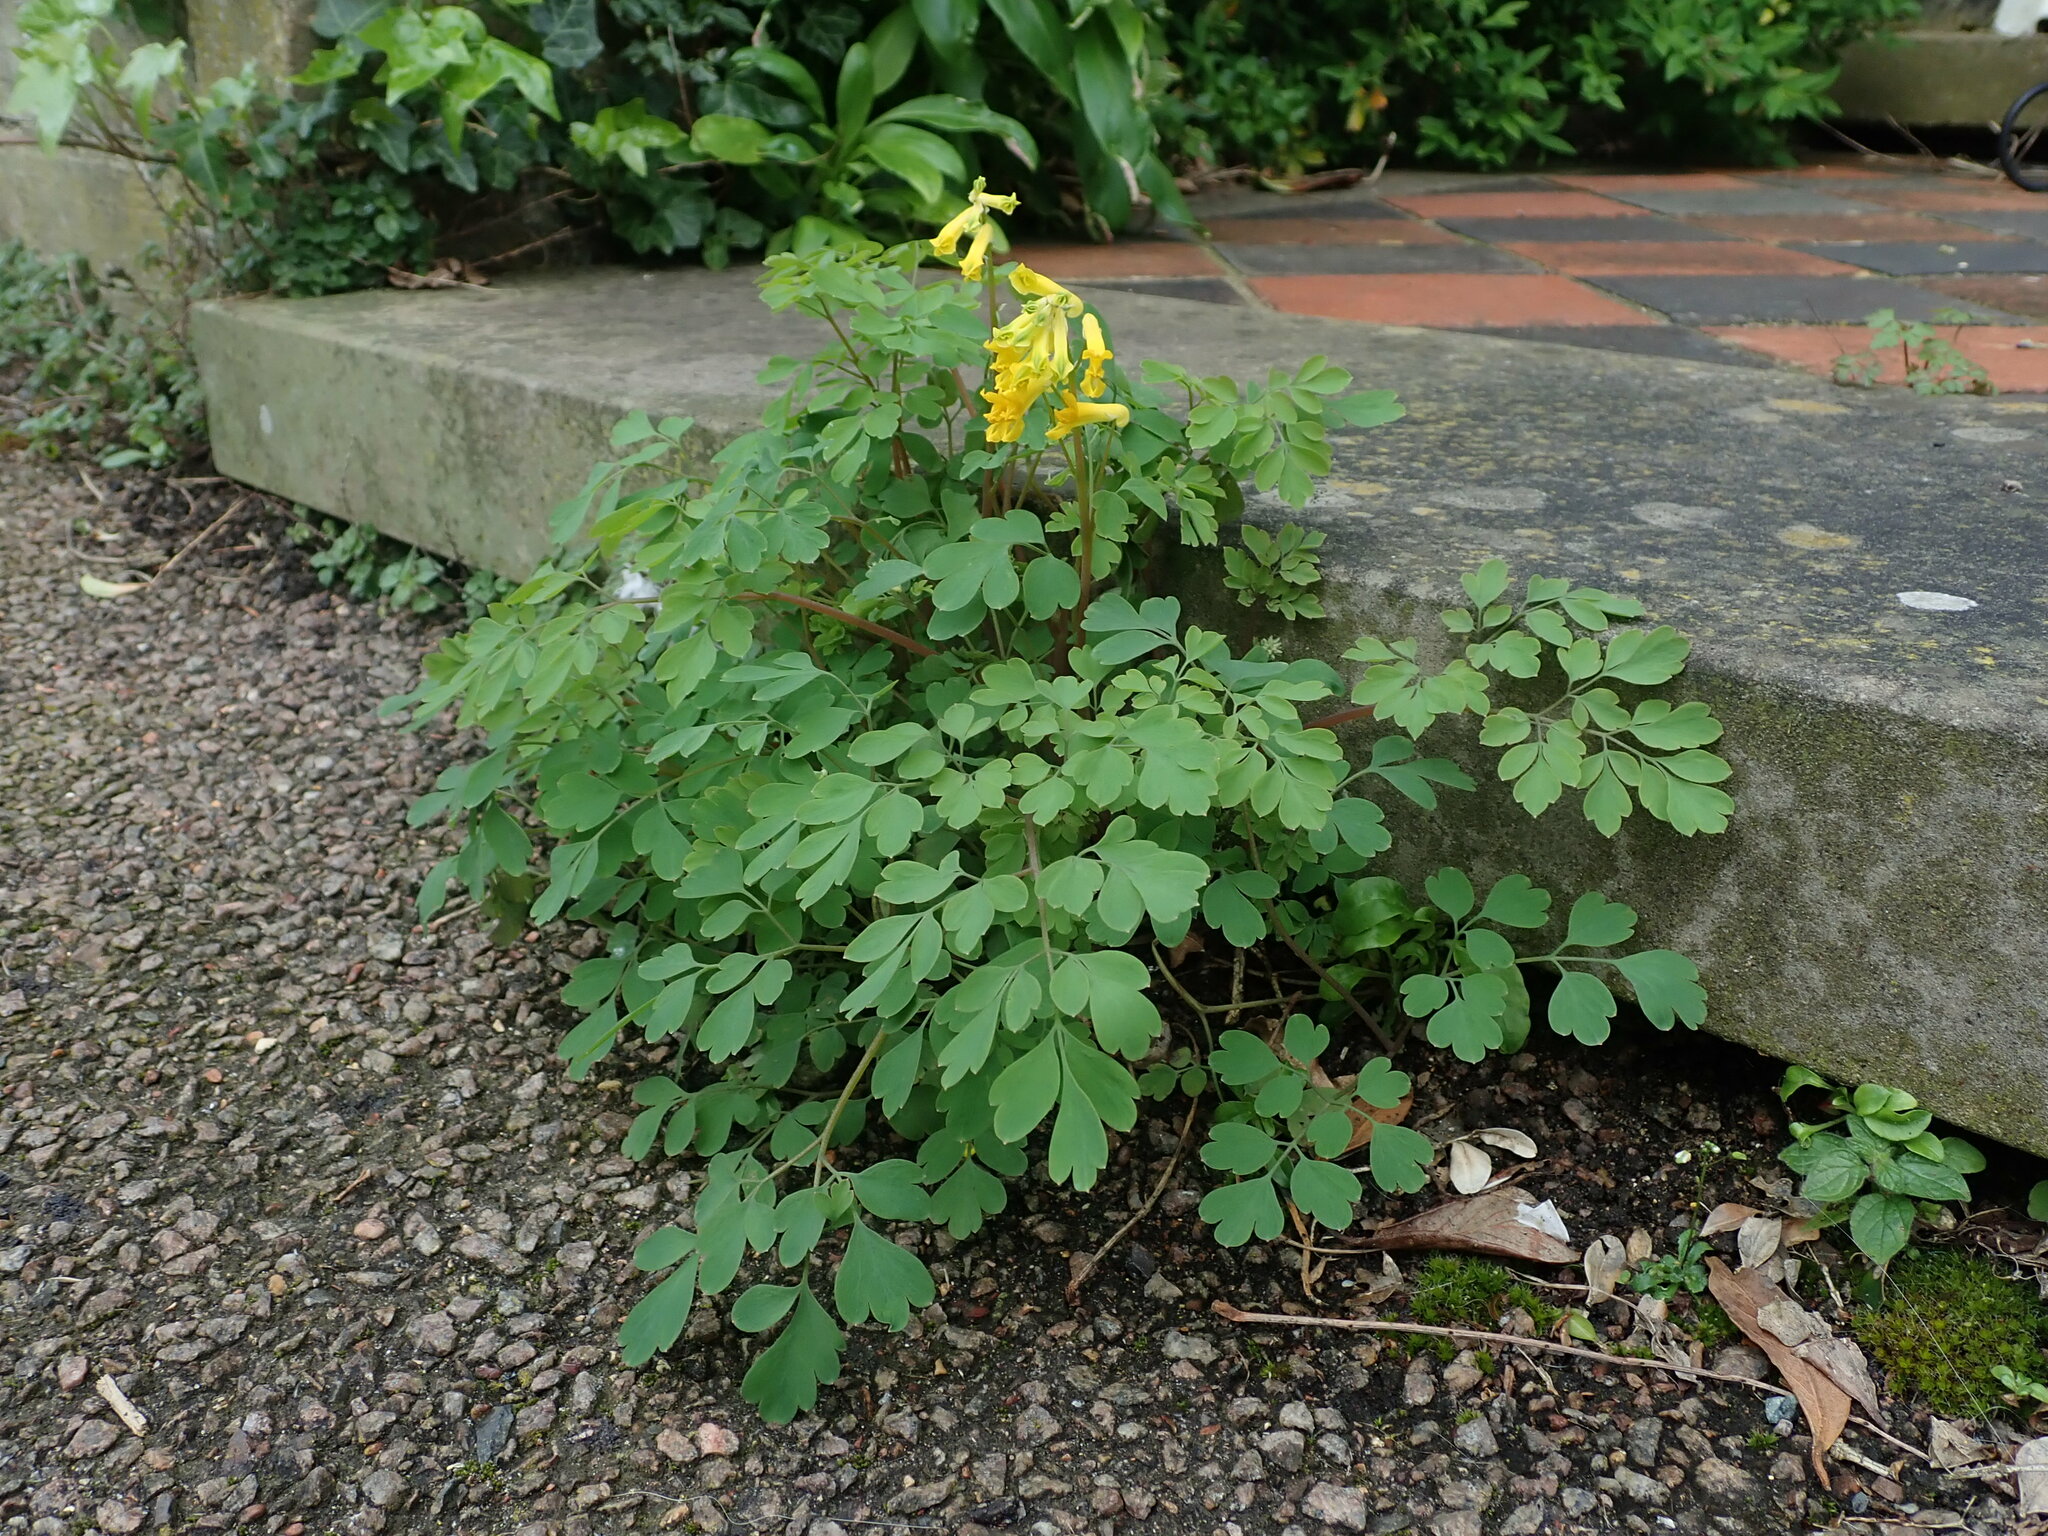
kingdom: Plantae
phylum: Tracheophyta
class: Magnoliopsida
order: Ranunculales
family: Papaveraceae
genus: Pseudofumaria
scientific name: Pseudofumaria lutea
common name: Yellow corydalis
